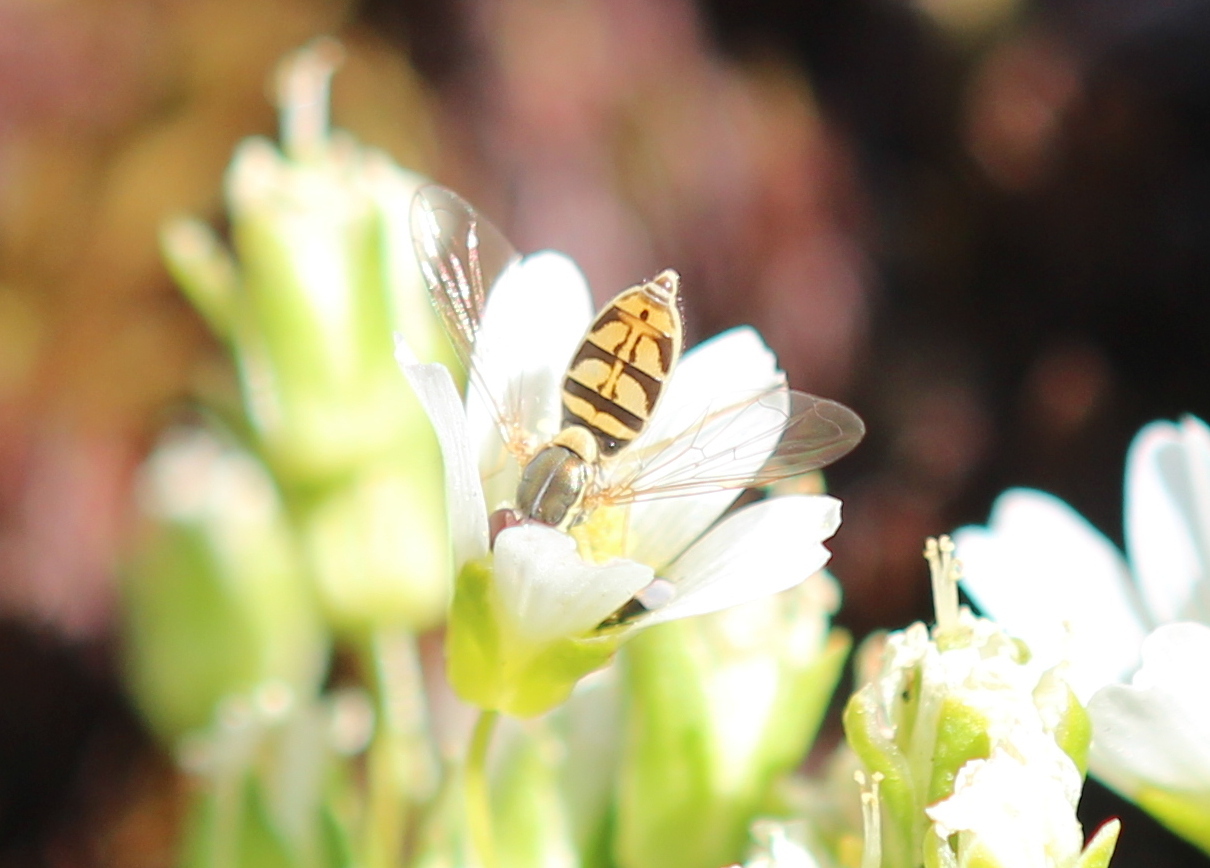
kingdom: Animalia
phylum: Arthropoda
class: Insecta
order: Diptera
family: Syrphidae
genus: Toxomerus
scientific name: Toxomerus marginatus
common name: Syrphid fly
